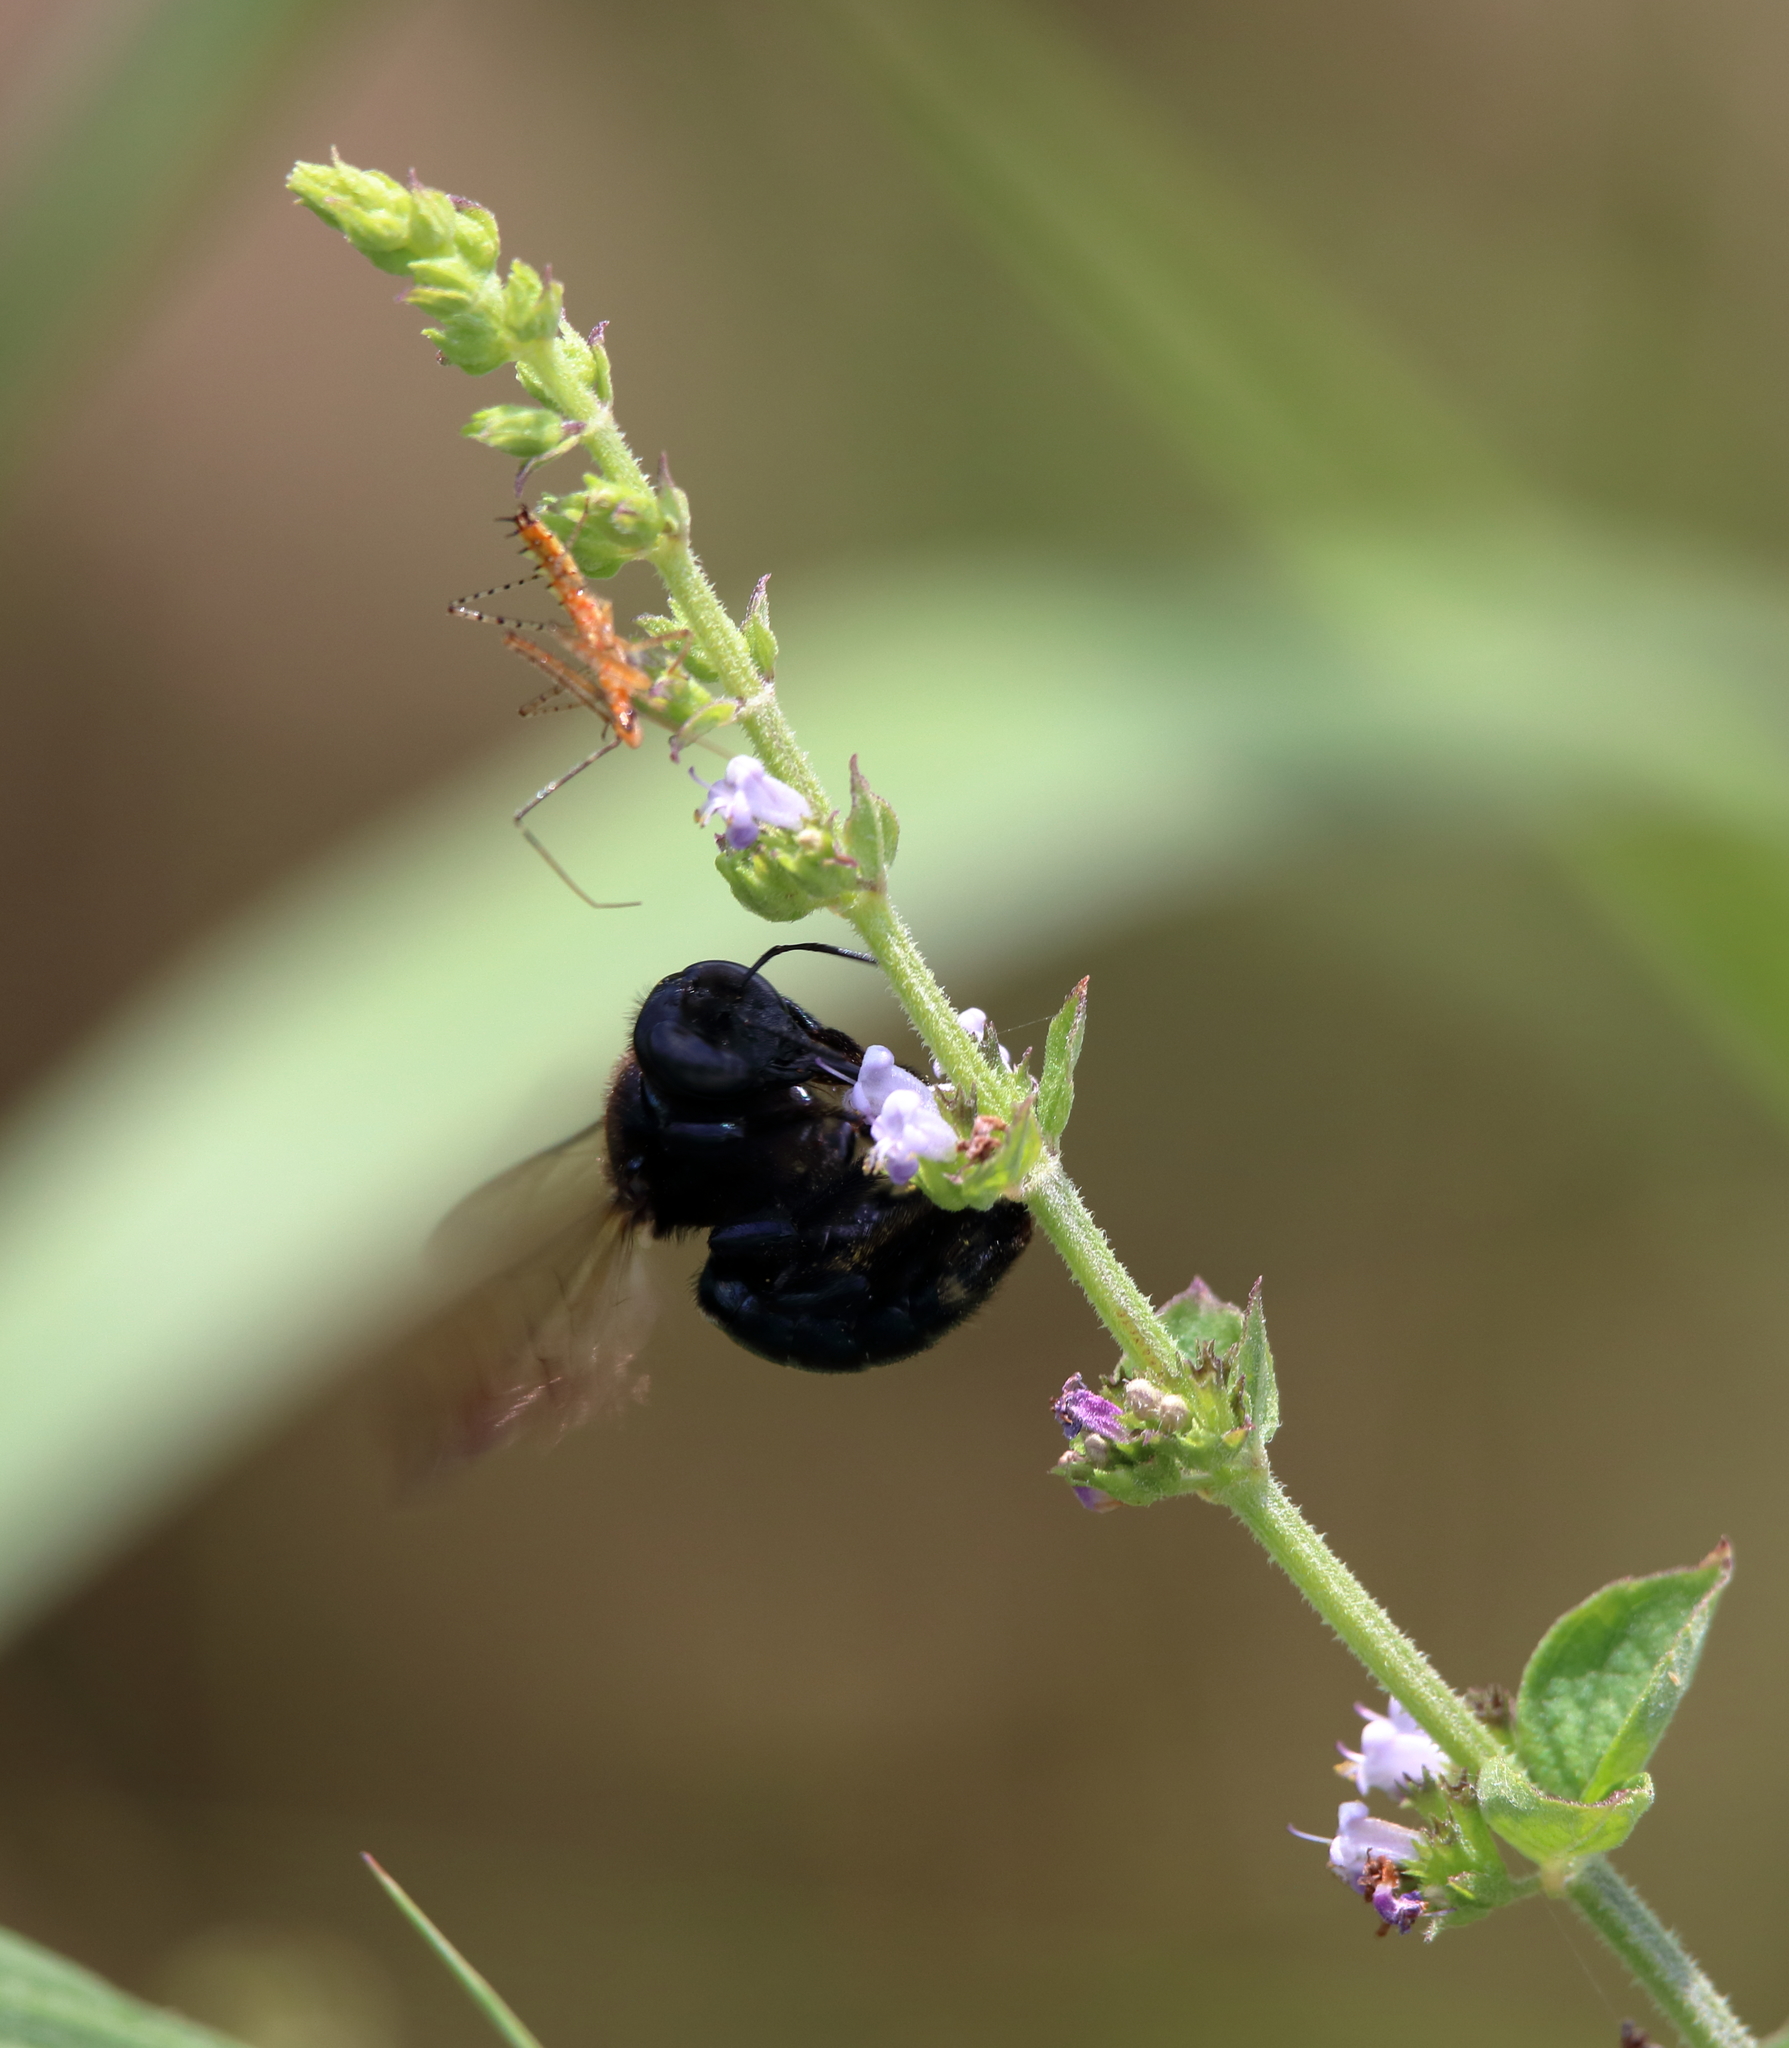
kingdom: Animalia
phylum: Arthropoda
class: Insecta
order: Hymenoptera
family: Apidae
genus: Xylocopa
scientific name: Xylocopa micans
